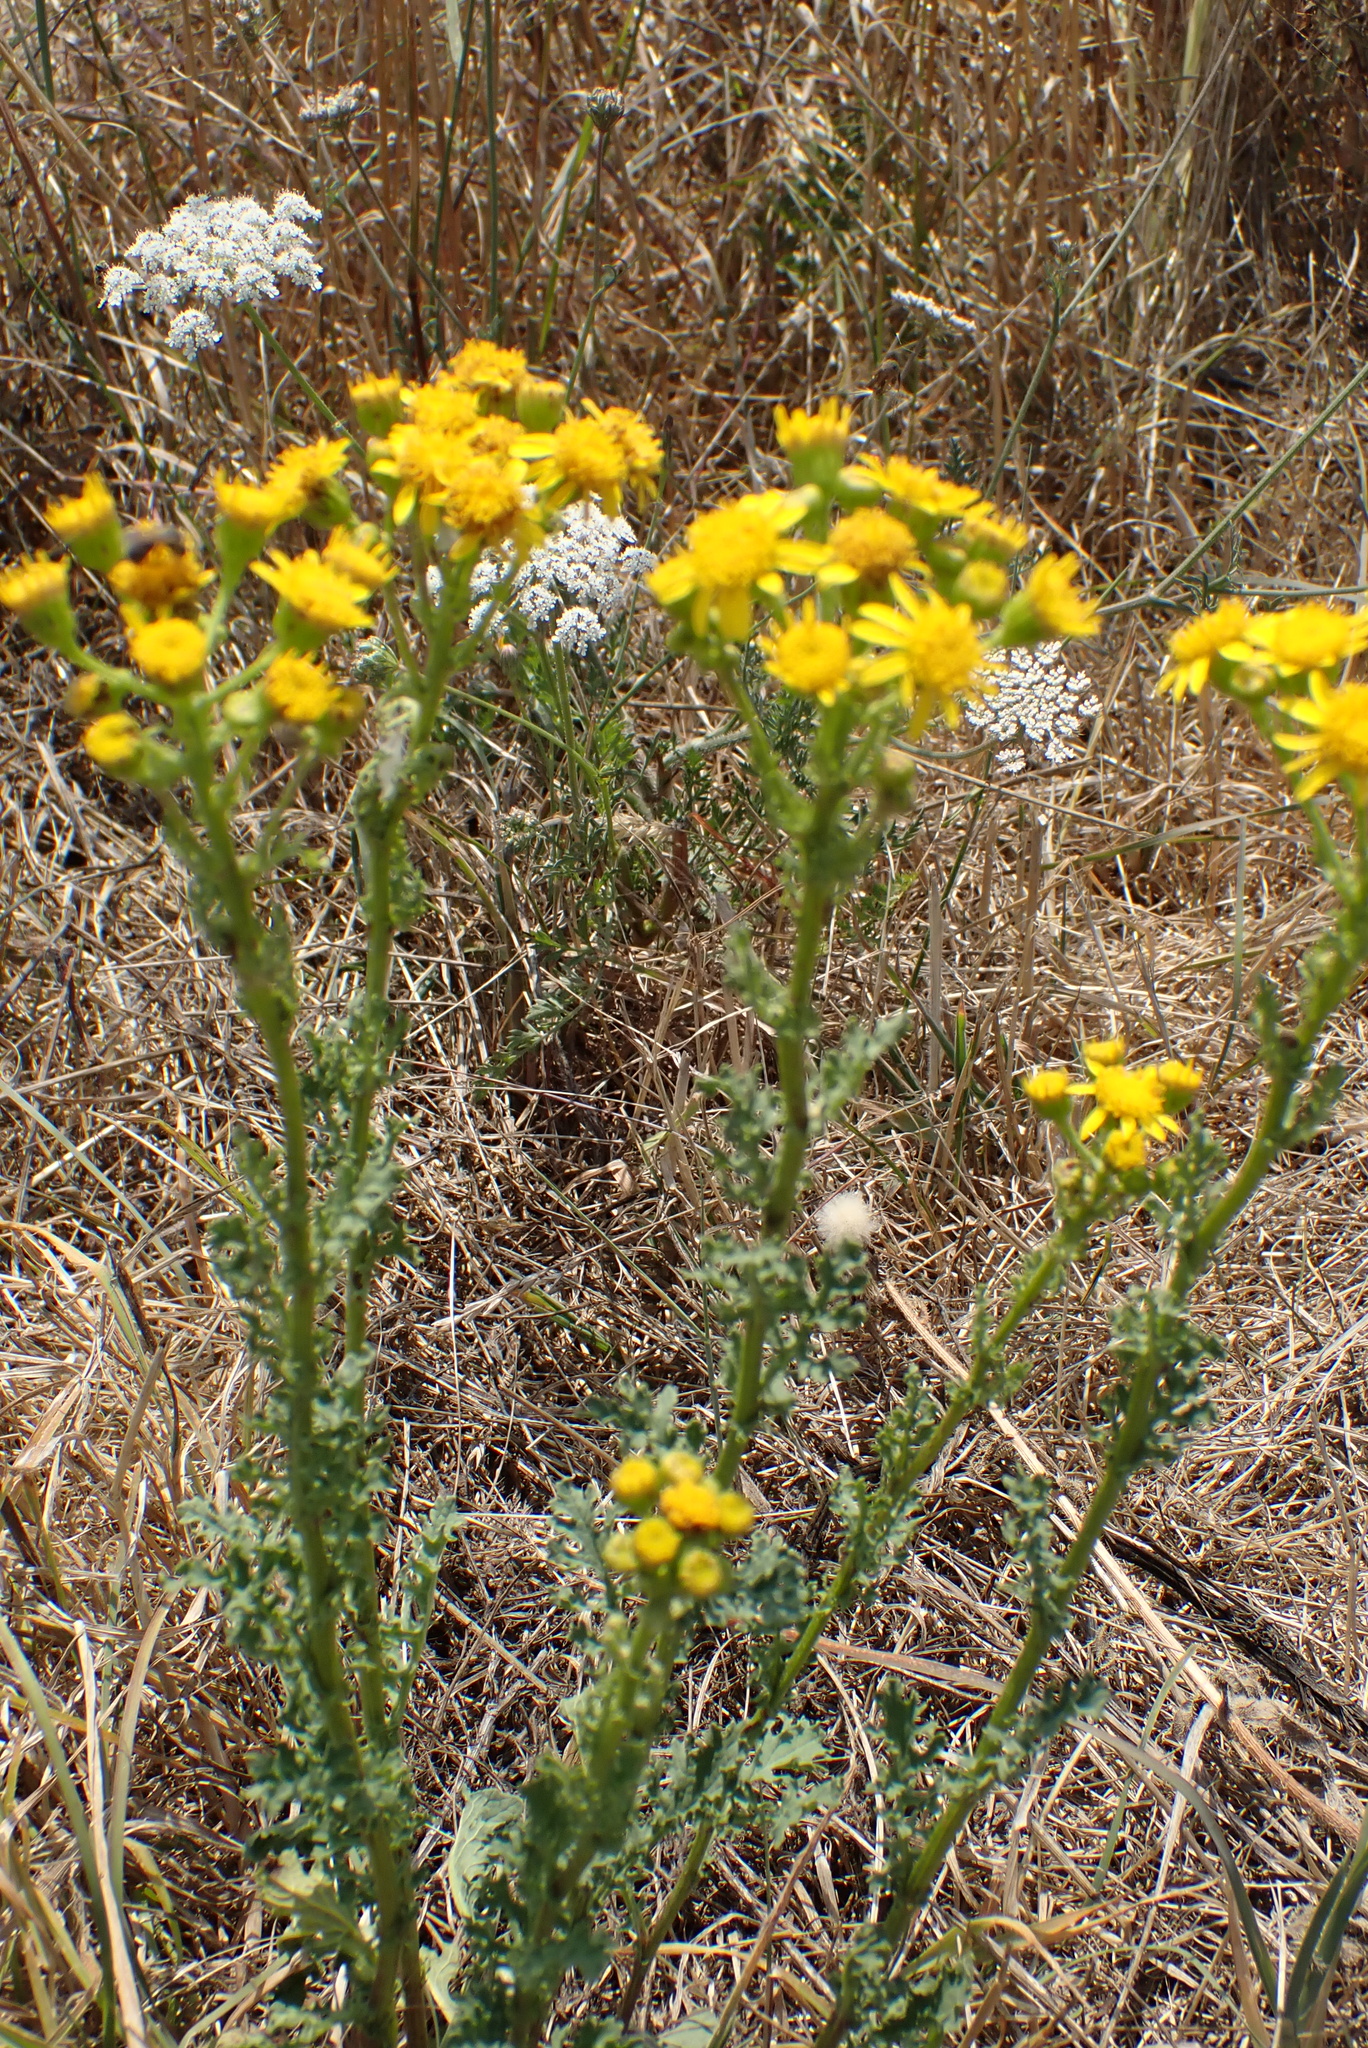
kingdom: Plantae
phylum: Tracheophyta
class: Magnoliopsida
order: Asterales
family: Asteraceae
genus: Jacobaea
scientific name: Jacobaea vulgaris
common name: Stinking willie
